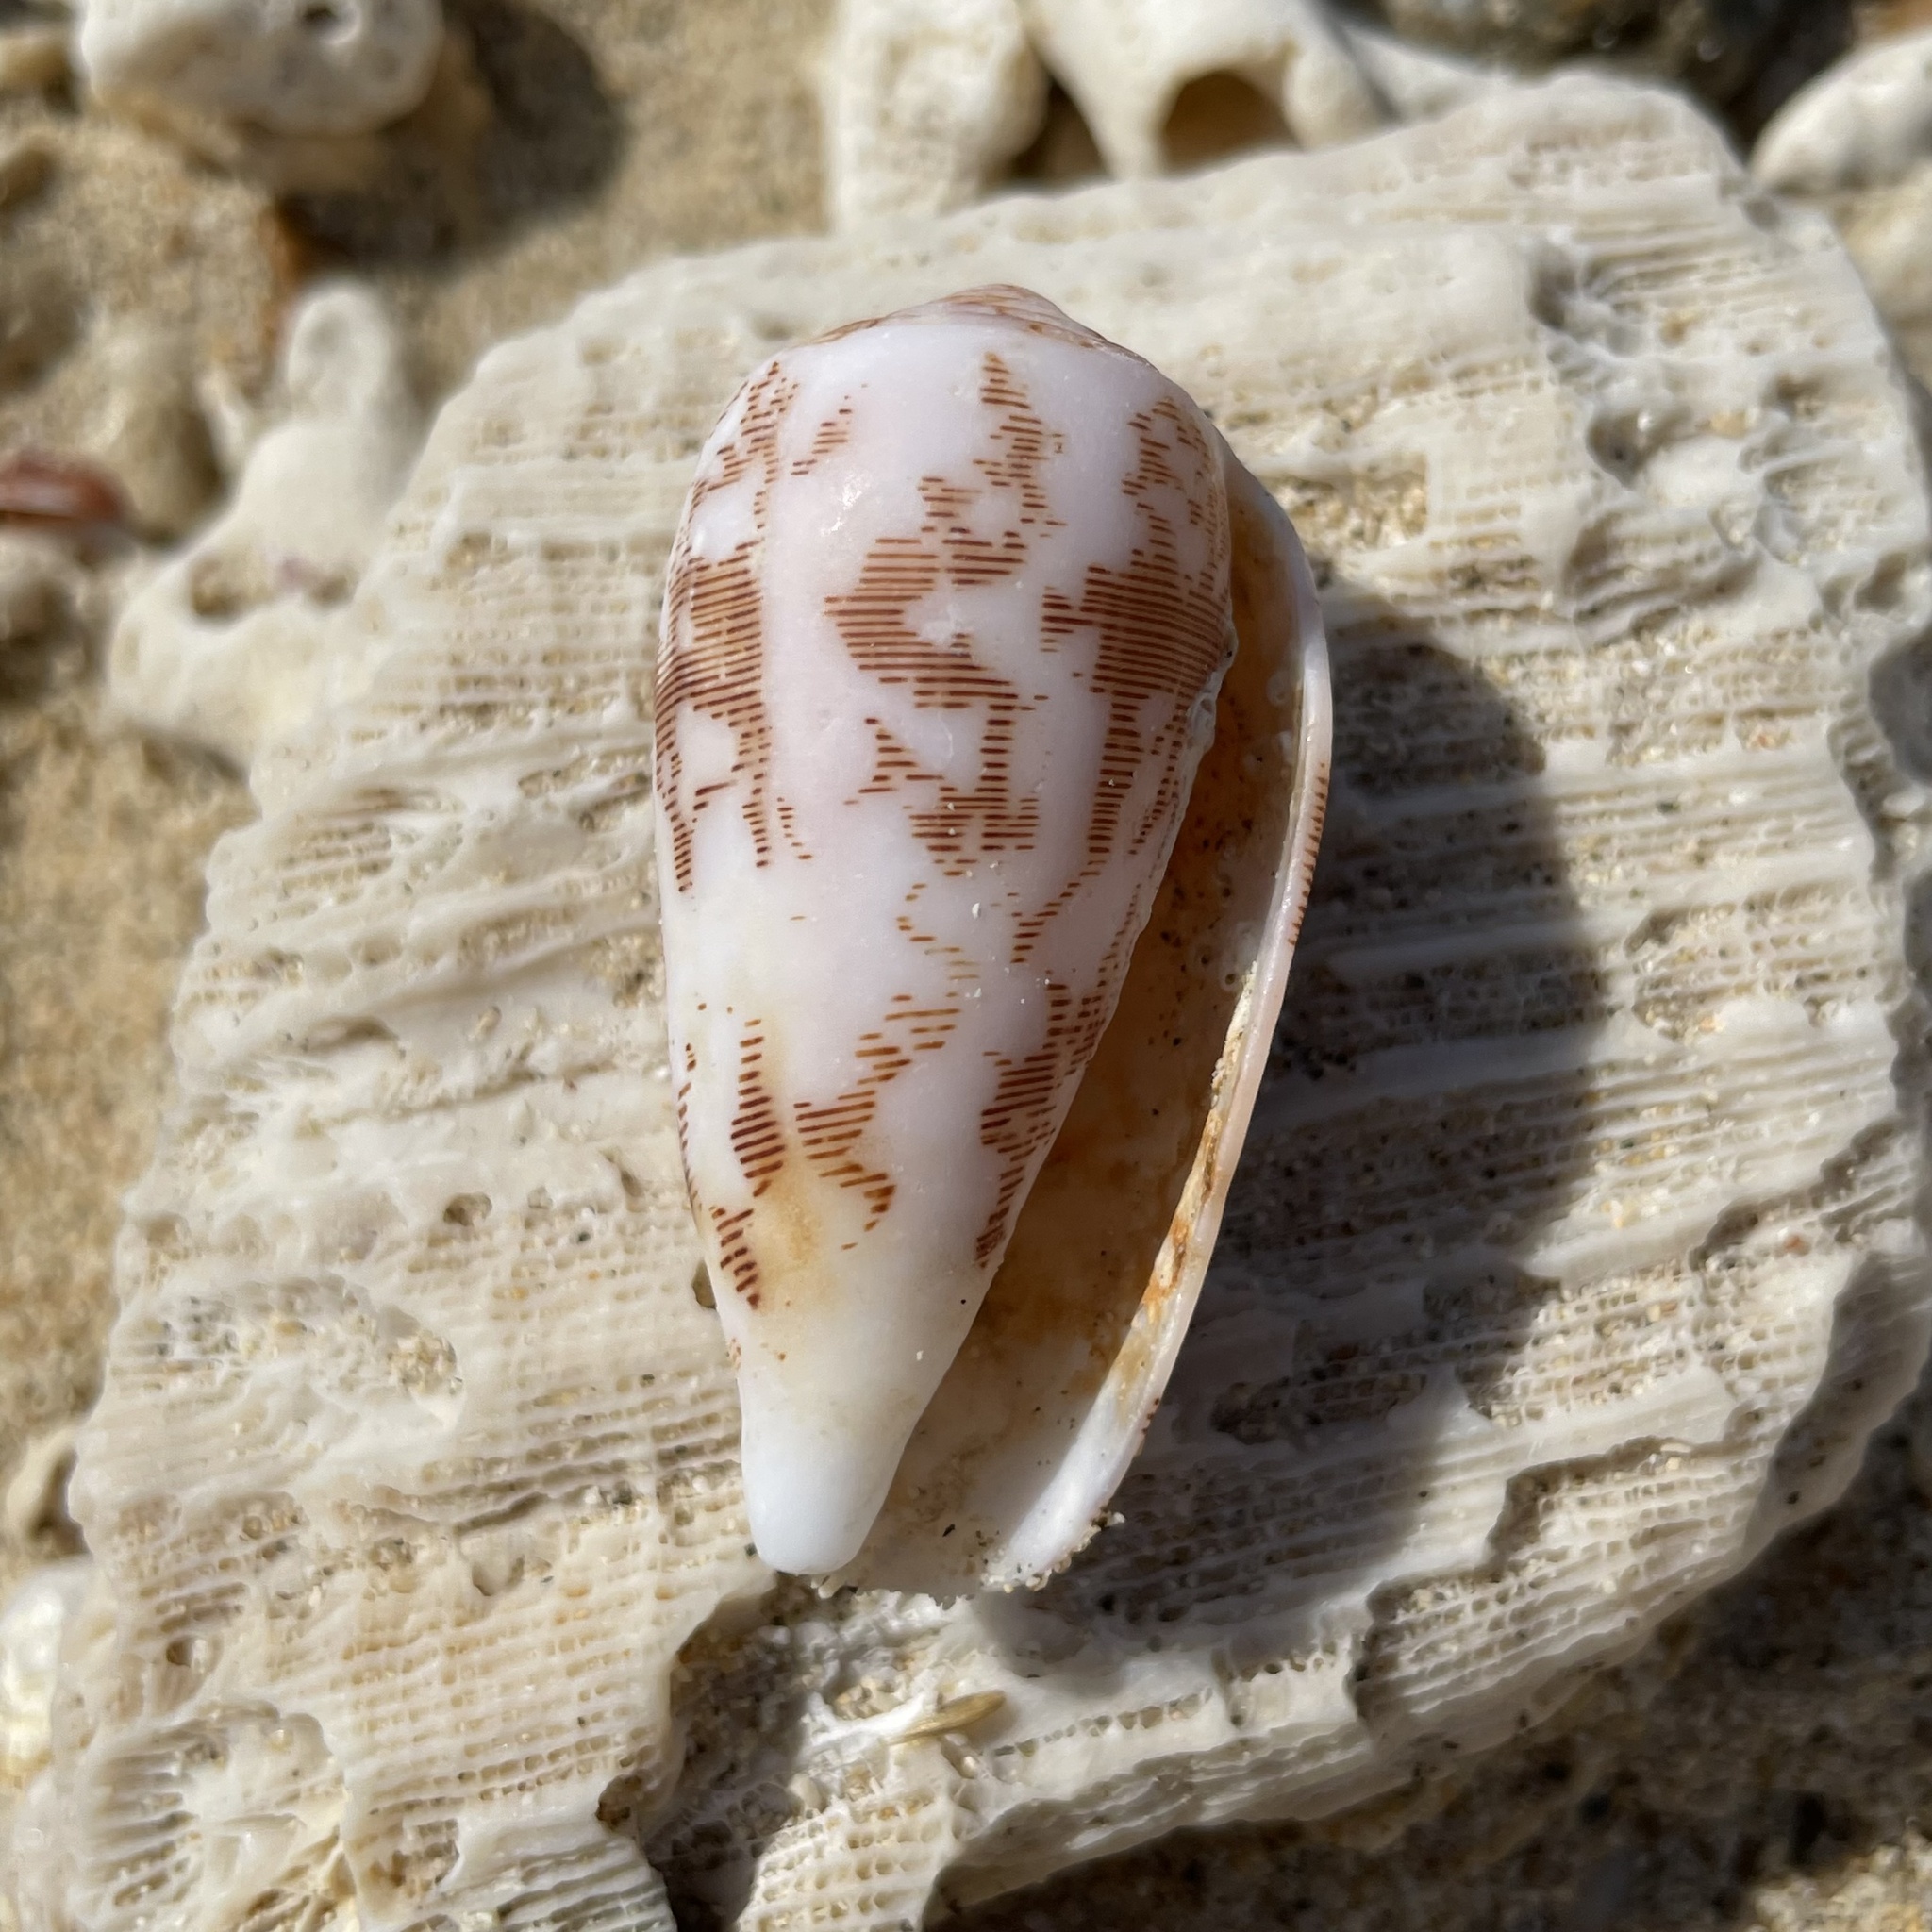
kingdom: Animalia
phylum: Mollusca
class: Gastropoda
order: Neogastropoda
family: Conidae
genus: Conus
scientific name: Conus striatus
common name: Striated cone
